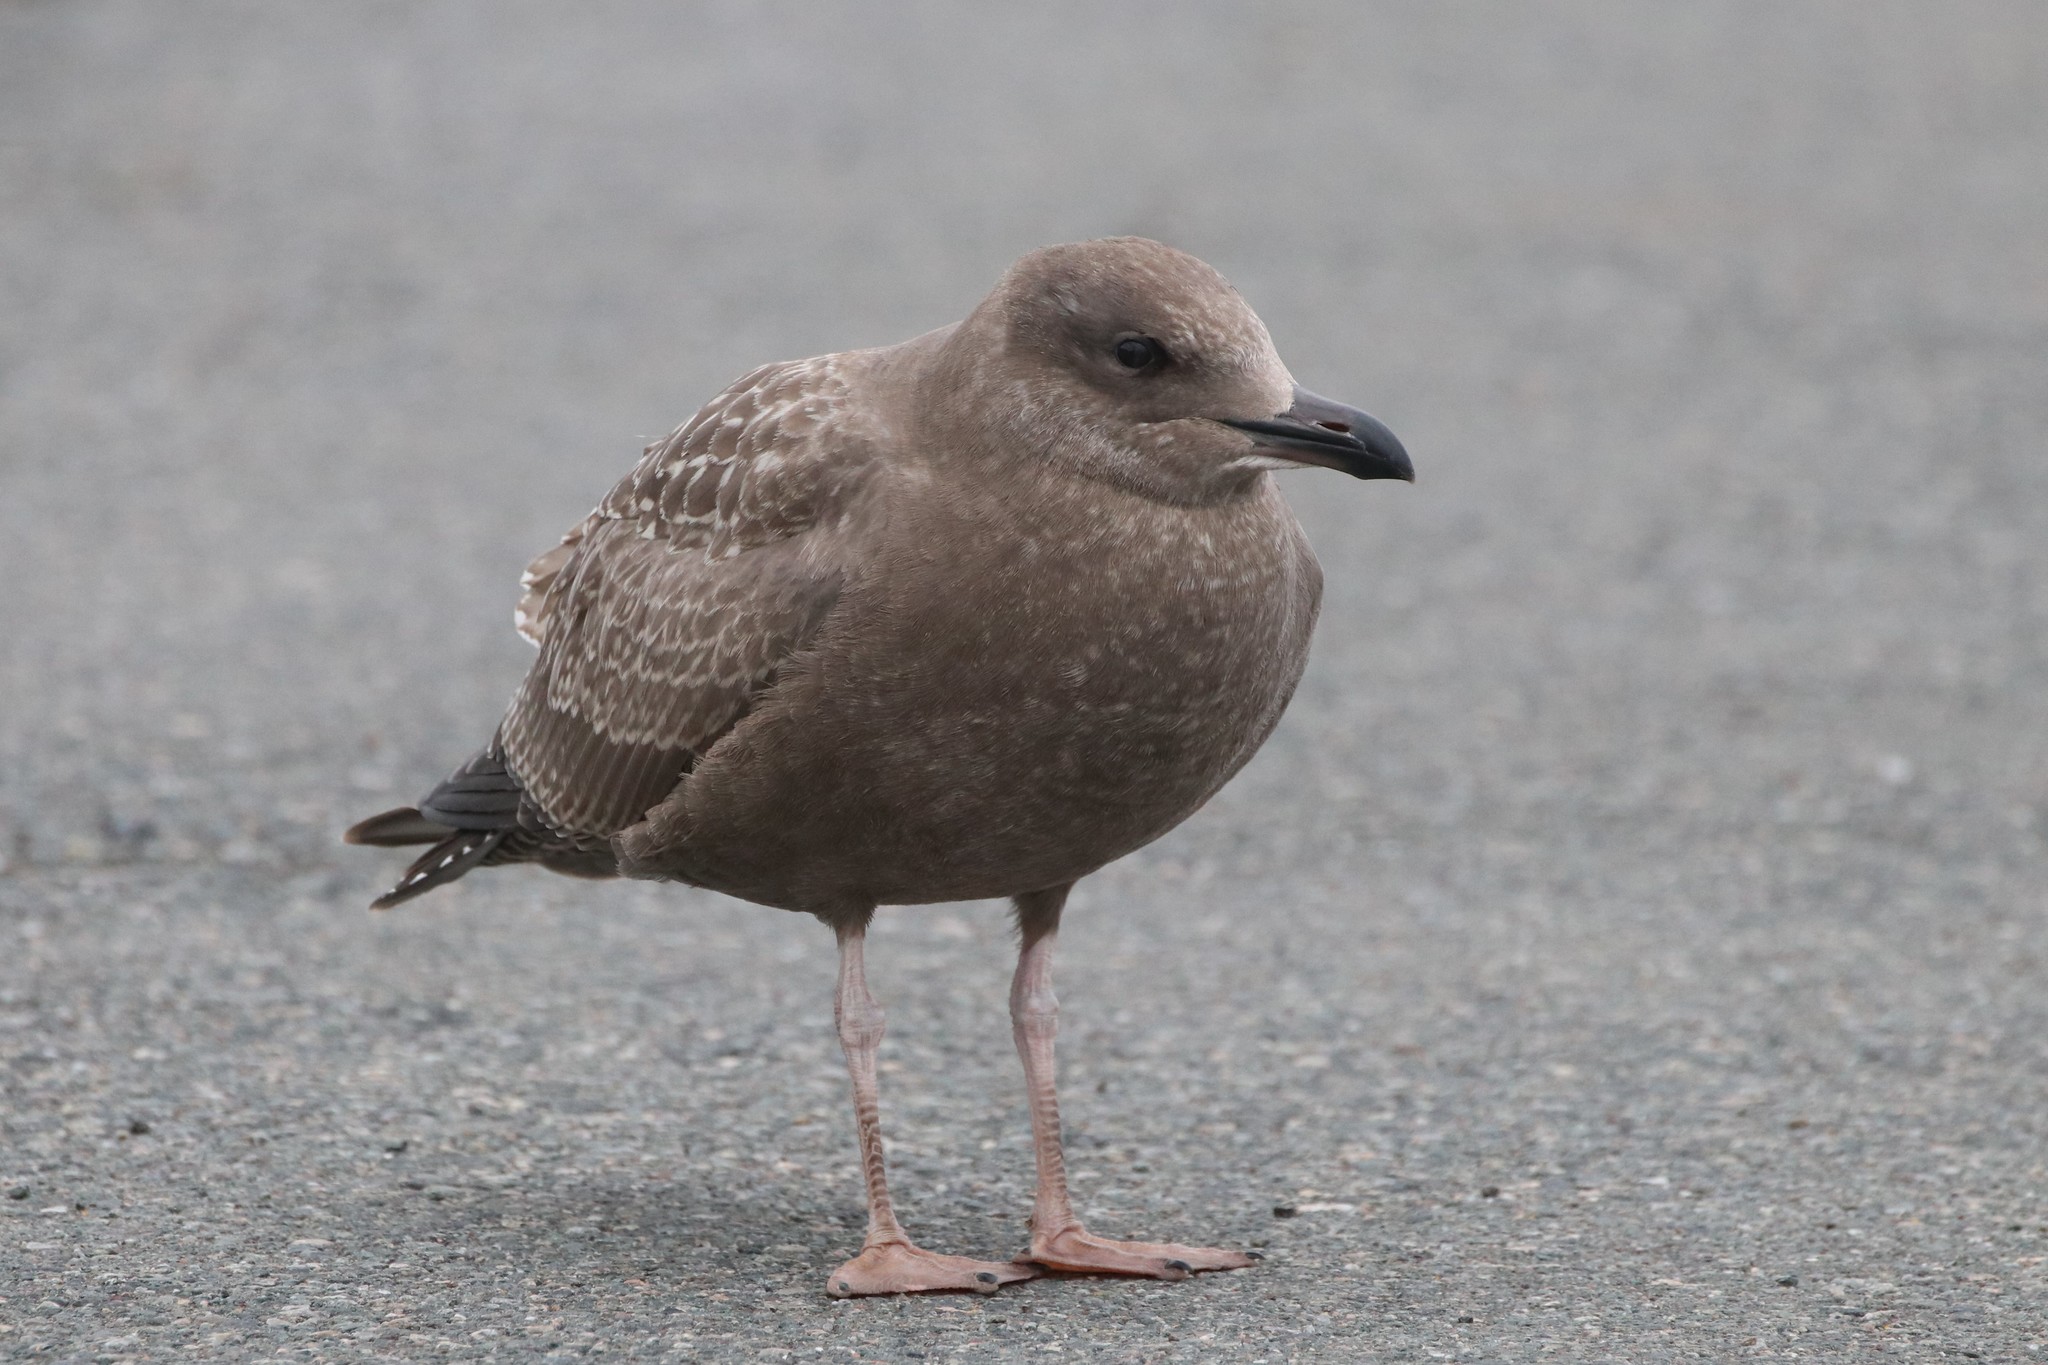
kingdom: Animalia
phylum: Chordata
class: Aves
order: Charadriiformes
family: Laridae
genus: Larus
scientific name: Larus argentatus
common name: Herring gull
